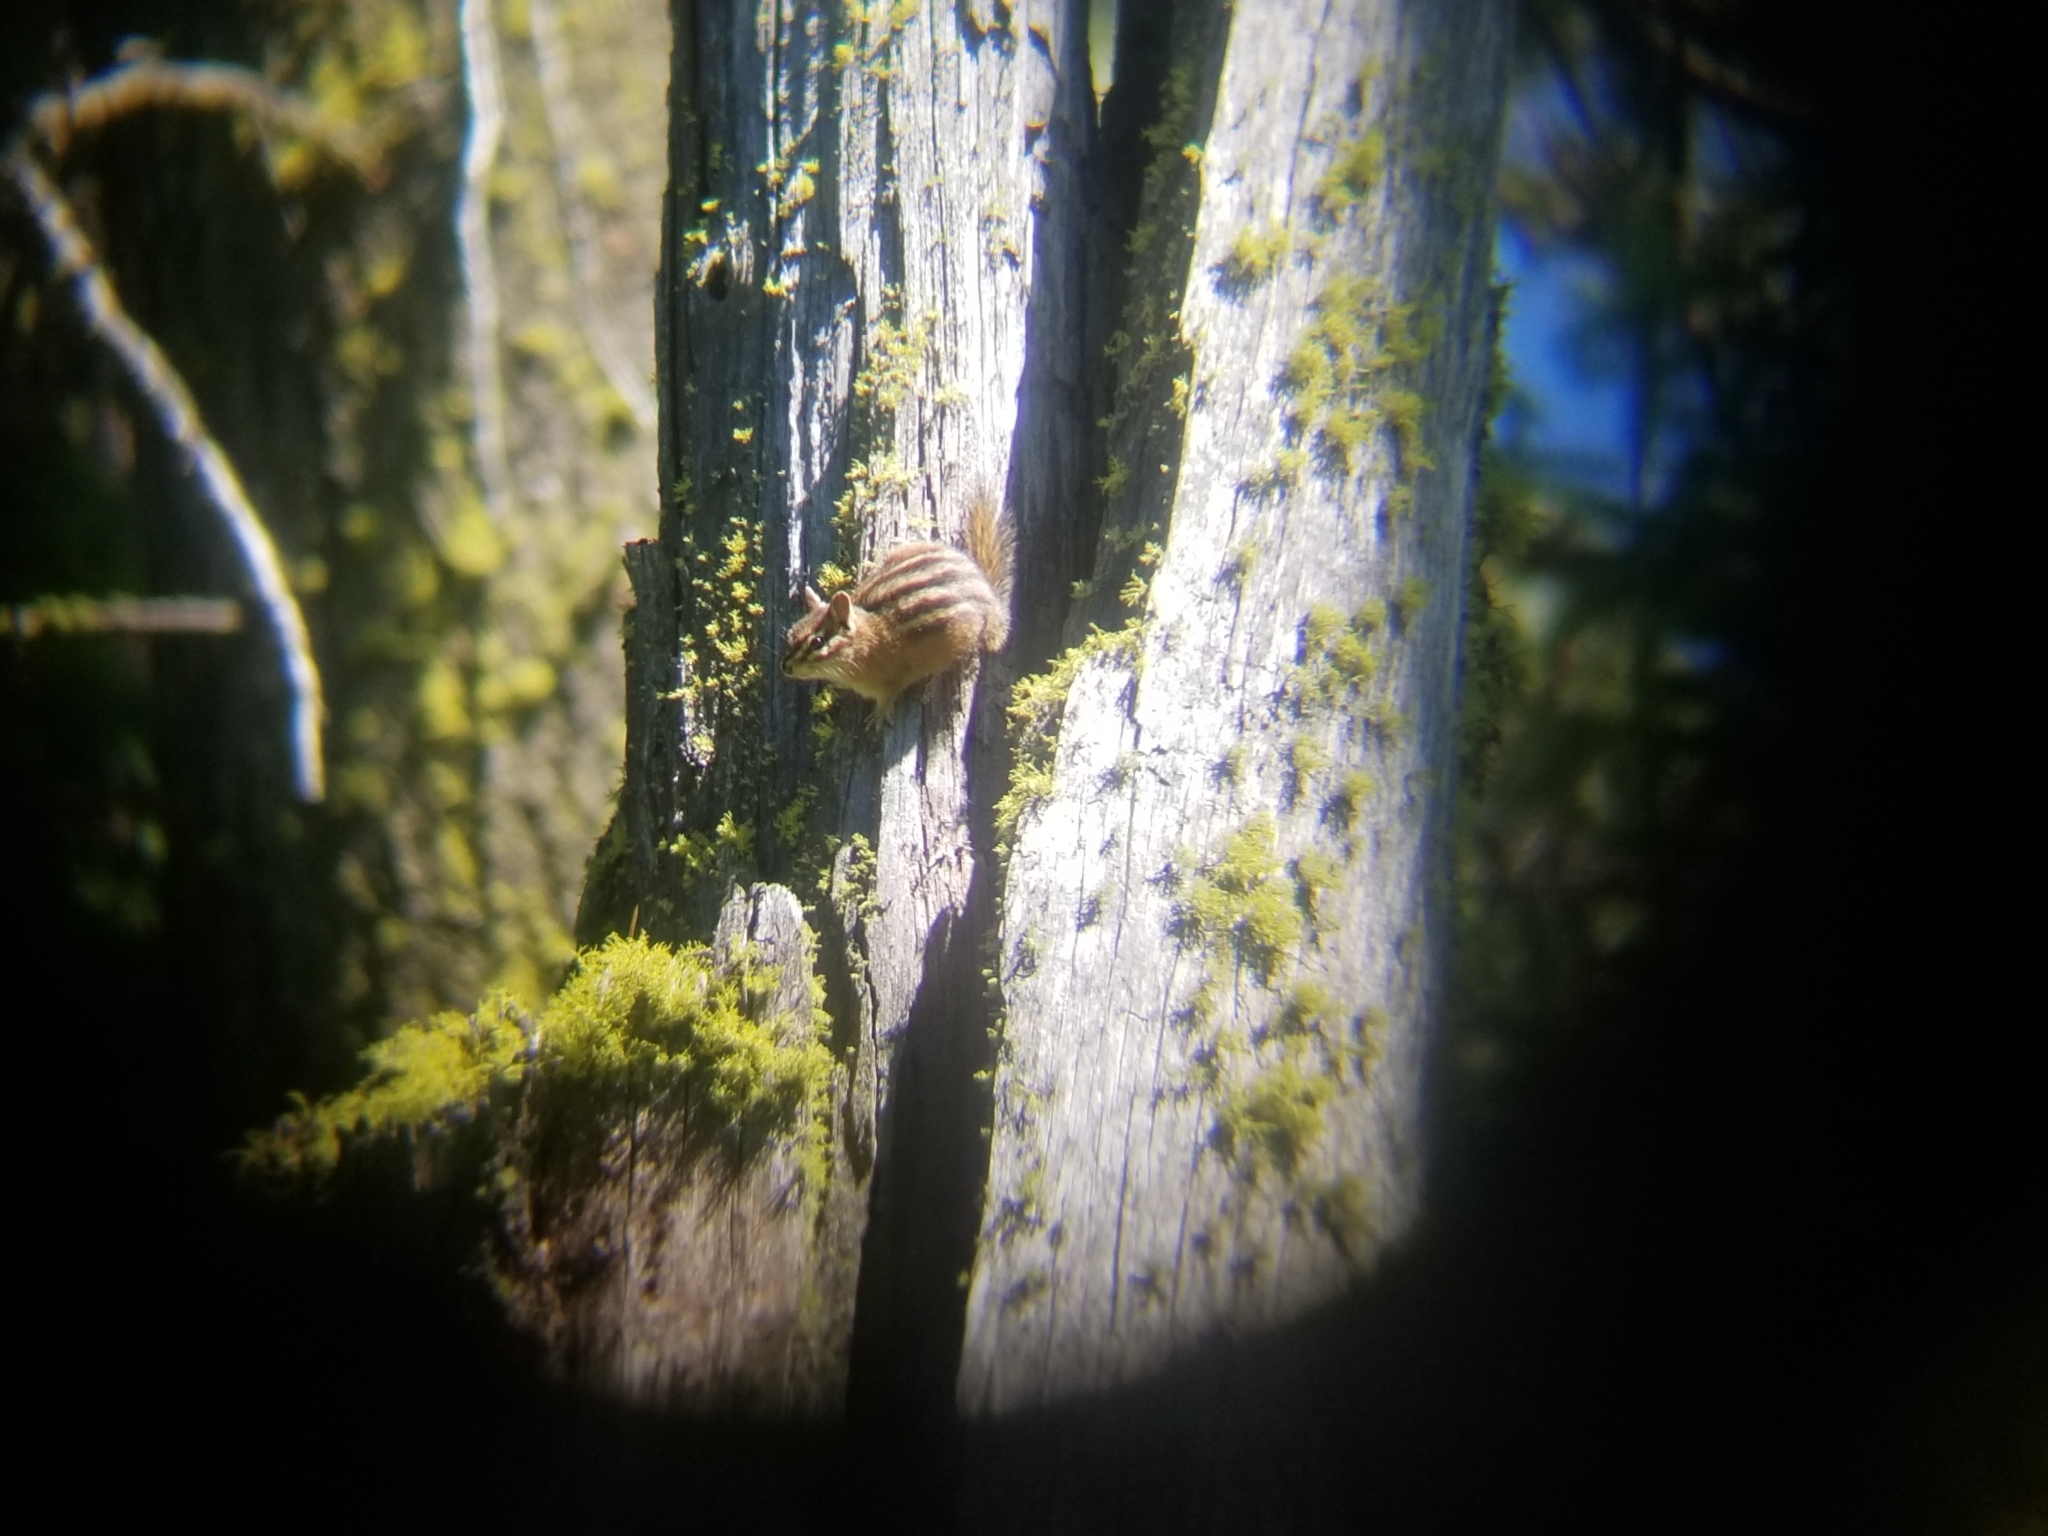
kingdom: Animalia
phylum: Chordata
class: Mammalia
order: Rodentia
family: Sciuridae
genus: Tamias
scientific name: Tamias minimus
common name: Least chipmunk
